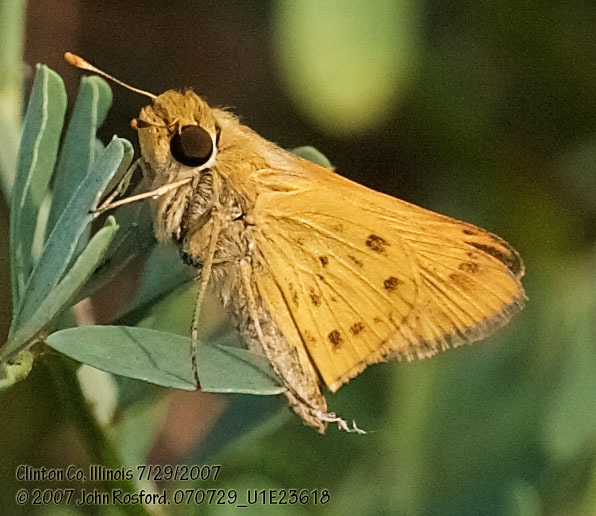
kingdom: Animalia
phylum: Arthropoda
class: Insecta
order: Lepidoptera
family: Hesperiidae
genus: Hylephila
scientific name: Hylephila phyleus
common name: Fiery skipper
